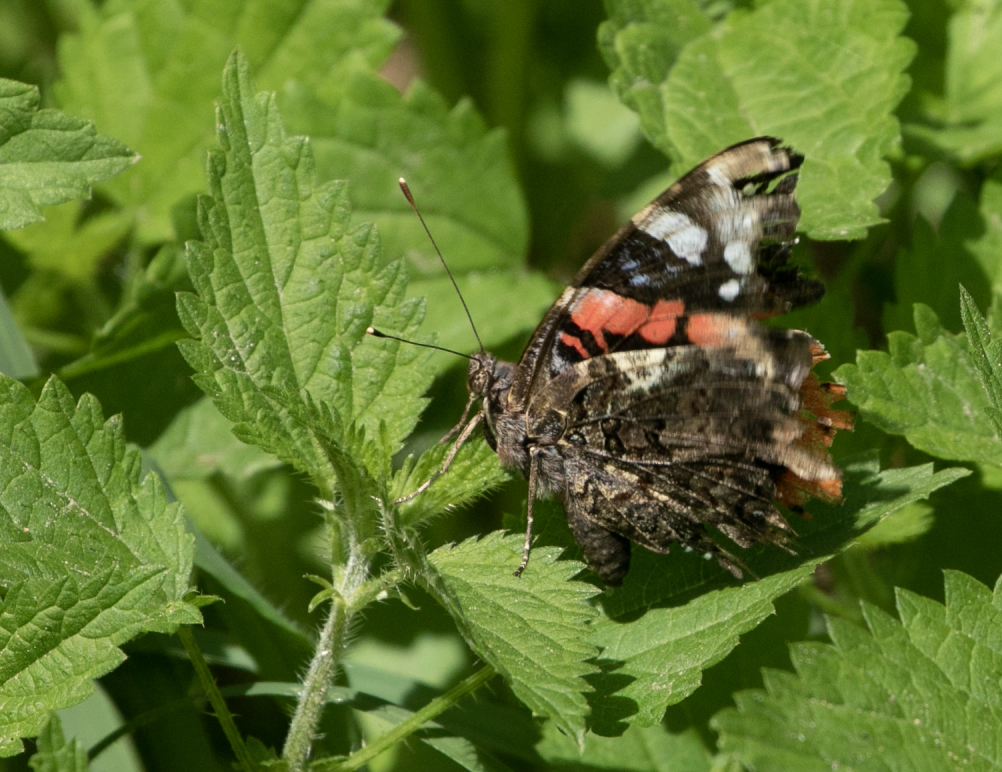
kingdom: Animalia
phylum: Arthropoda
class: Insecta
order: Lepidoptera
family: Nymphalidae
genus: Vanessa
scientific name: Vanessa atalanta
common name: Red admiral
